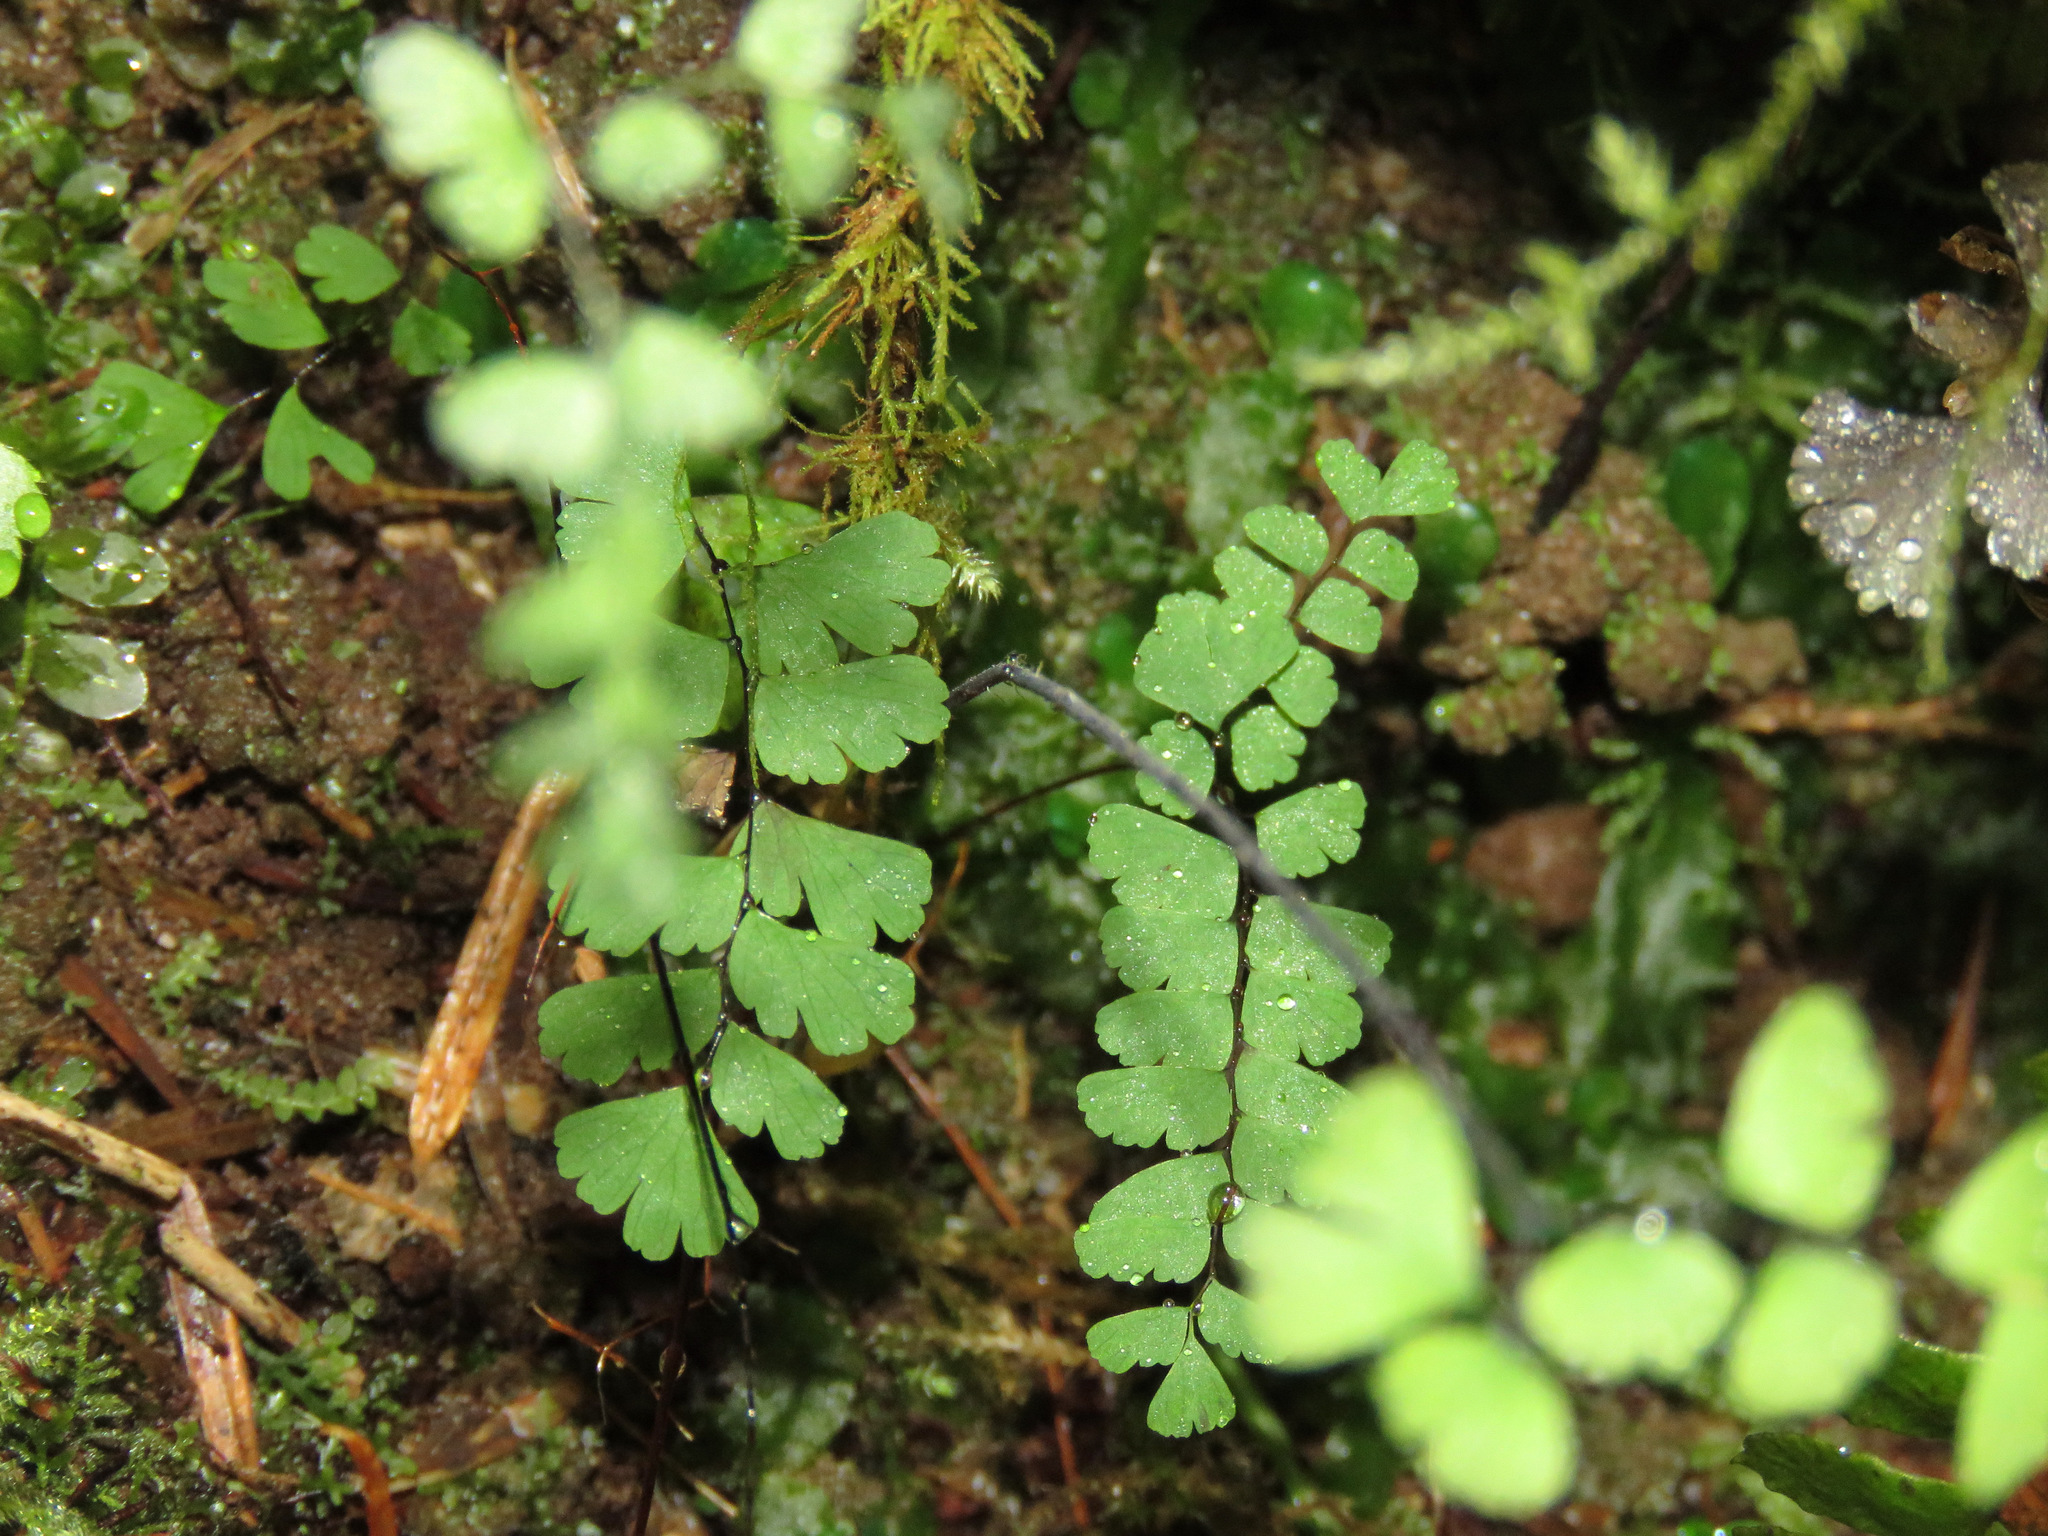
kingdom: Plantae
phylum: Tracheophyta
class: Polypodiopsida
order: Polypodiales
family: Pteridaceae
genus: Adiantum
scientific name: Adiantum aleuticum
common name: Aleutian maidenhair fern
